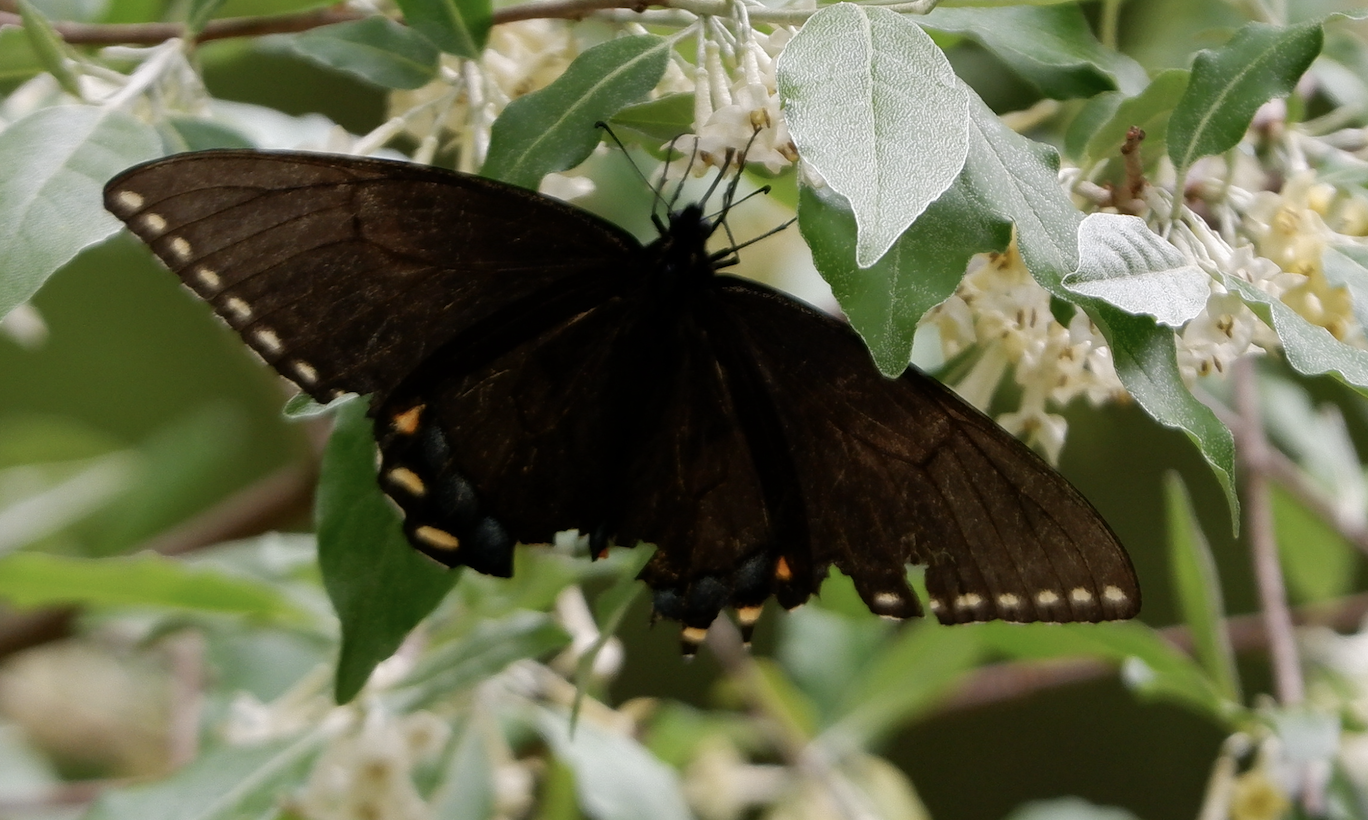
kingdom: Animalia
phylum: Arthropoda
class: Insecta
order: Lepidoptera
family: Papilionidae
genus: Papilio
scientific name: Papilio glaucus
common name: Tiger swallowtail
